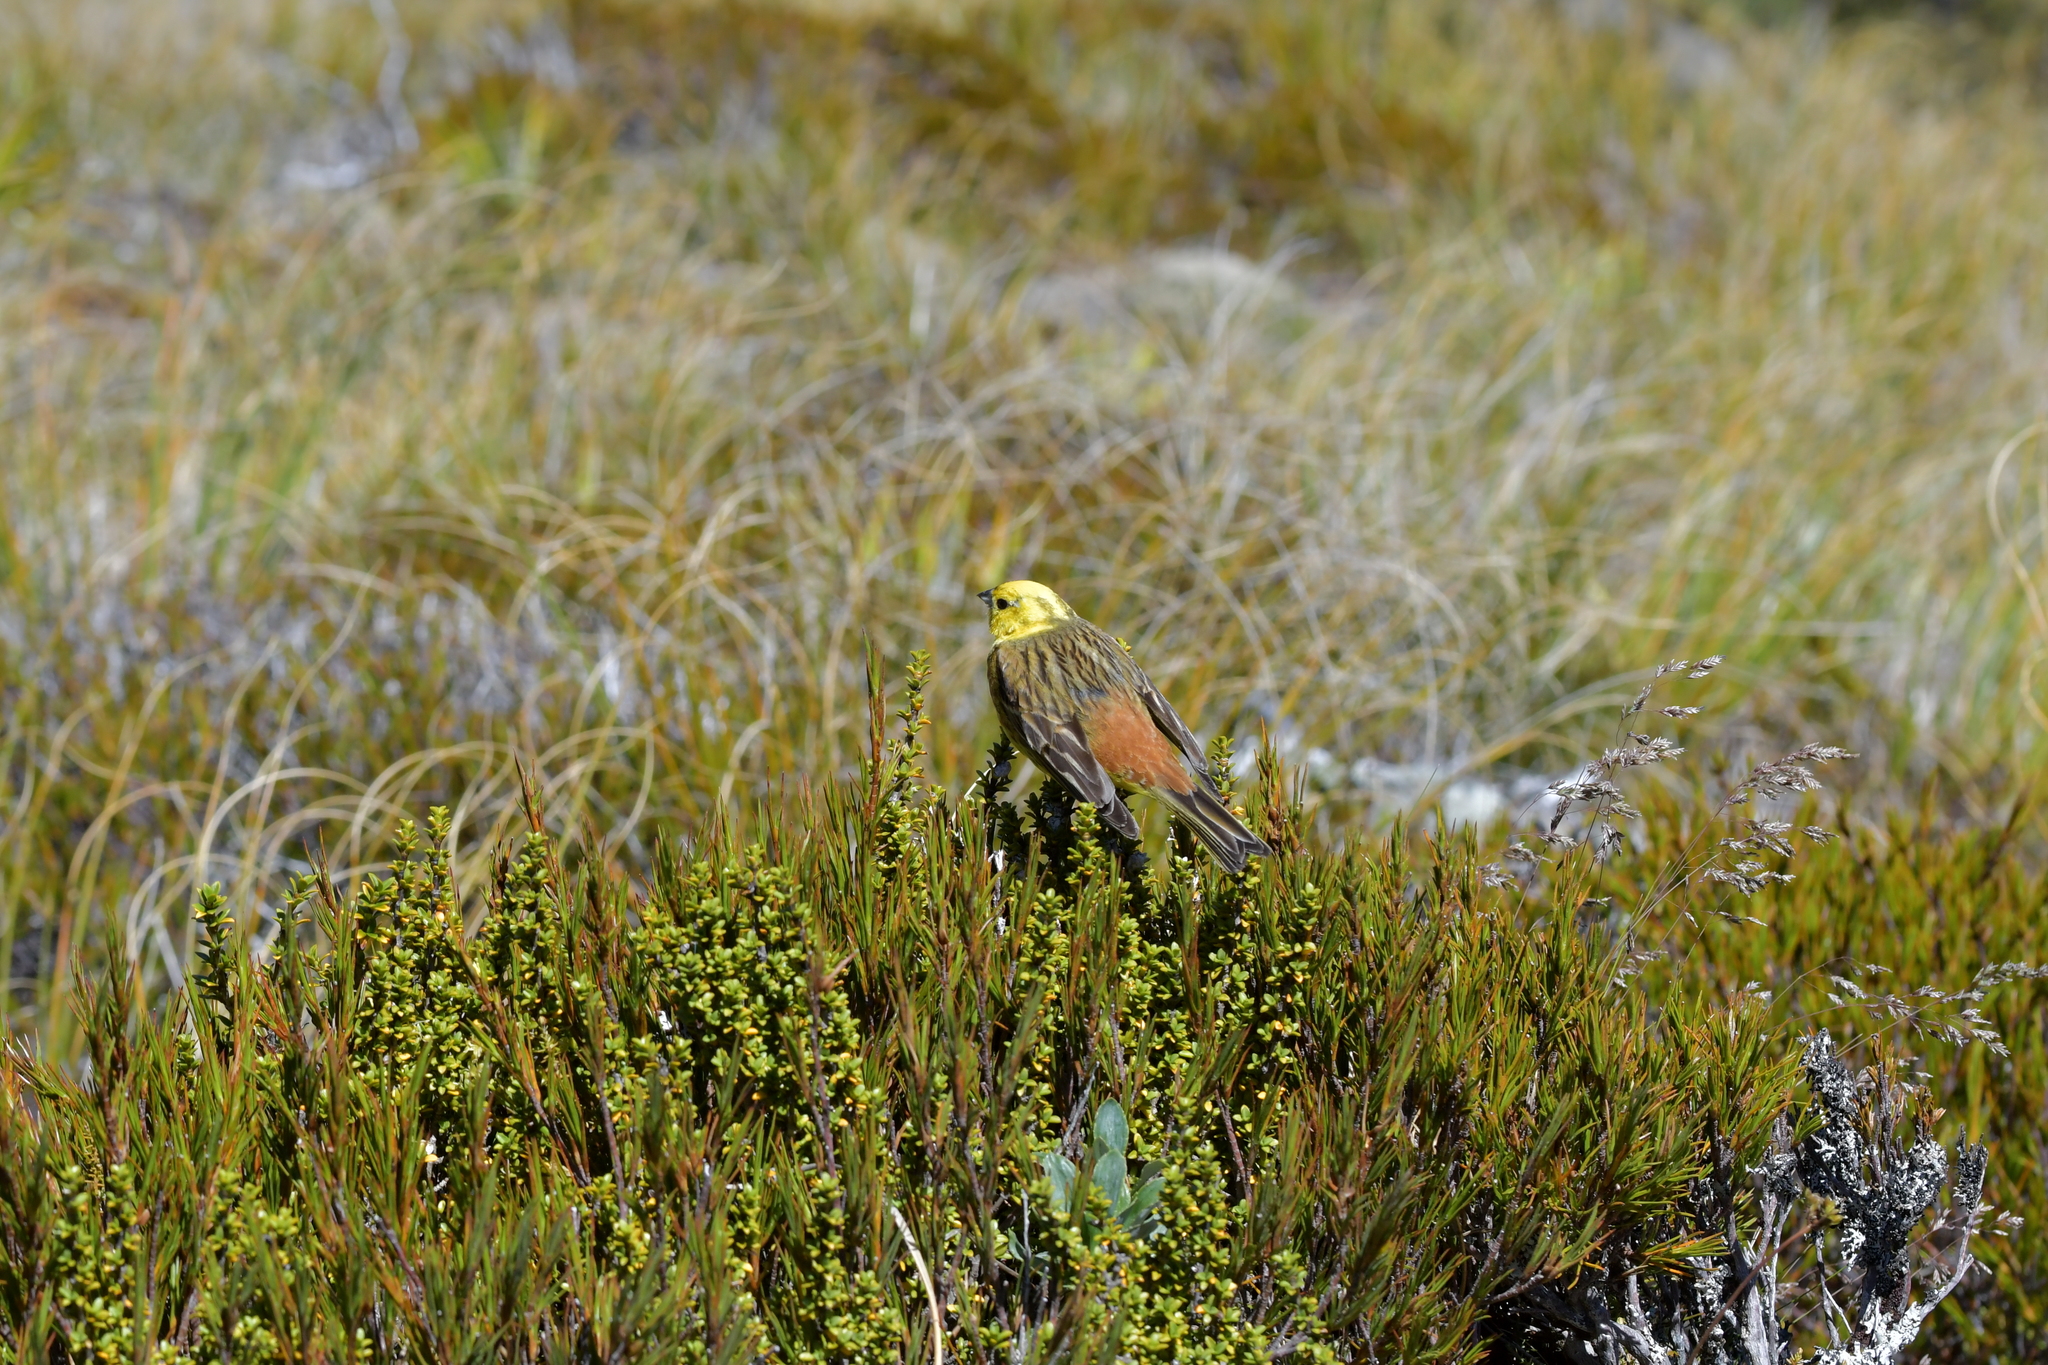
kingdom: Animalia
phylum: Chordata
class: Aves
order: Passeriformes
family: Emberizidae
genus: Emberiza
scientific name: Emberiza citrinella
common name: Yellowhammer
